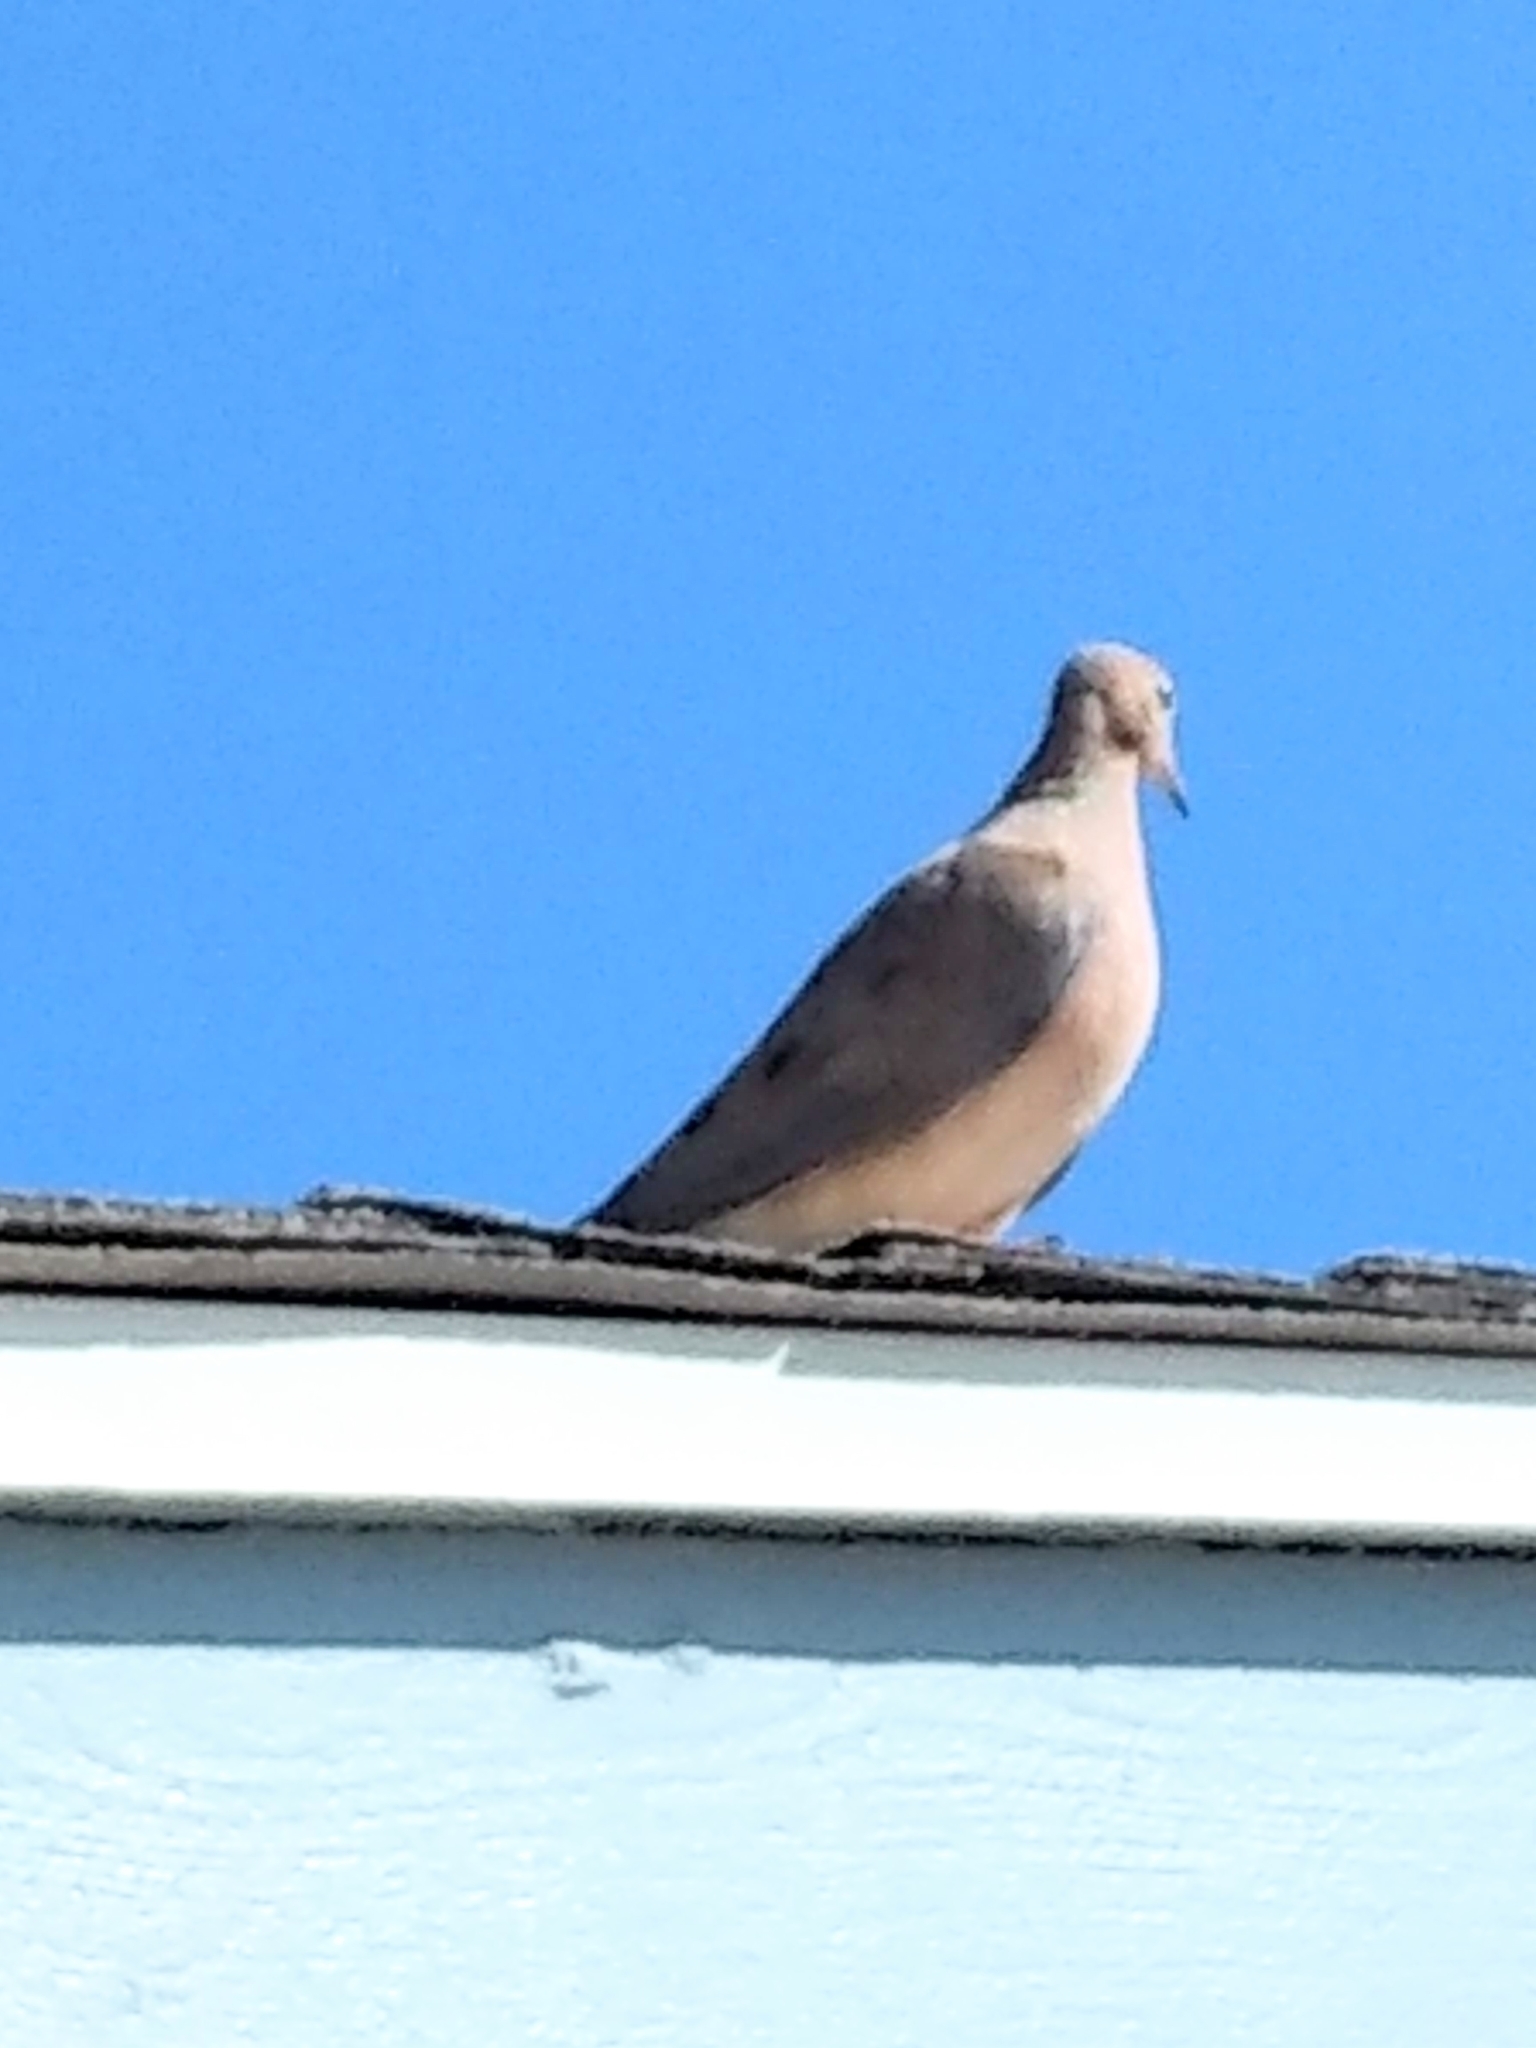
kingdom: Animalia
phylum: Chordata
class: Aves
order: Columbiformes
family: Columbidae
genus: Zenaida
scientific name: Zenaida macroura
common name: Mourning dove
